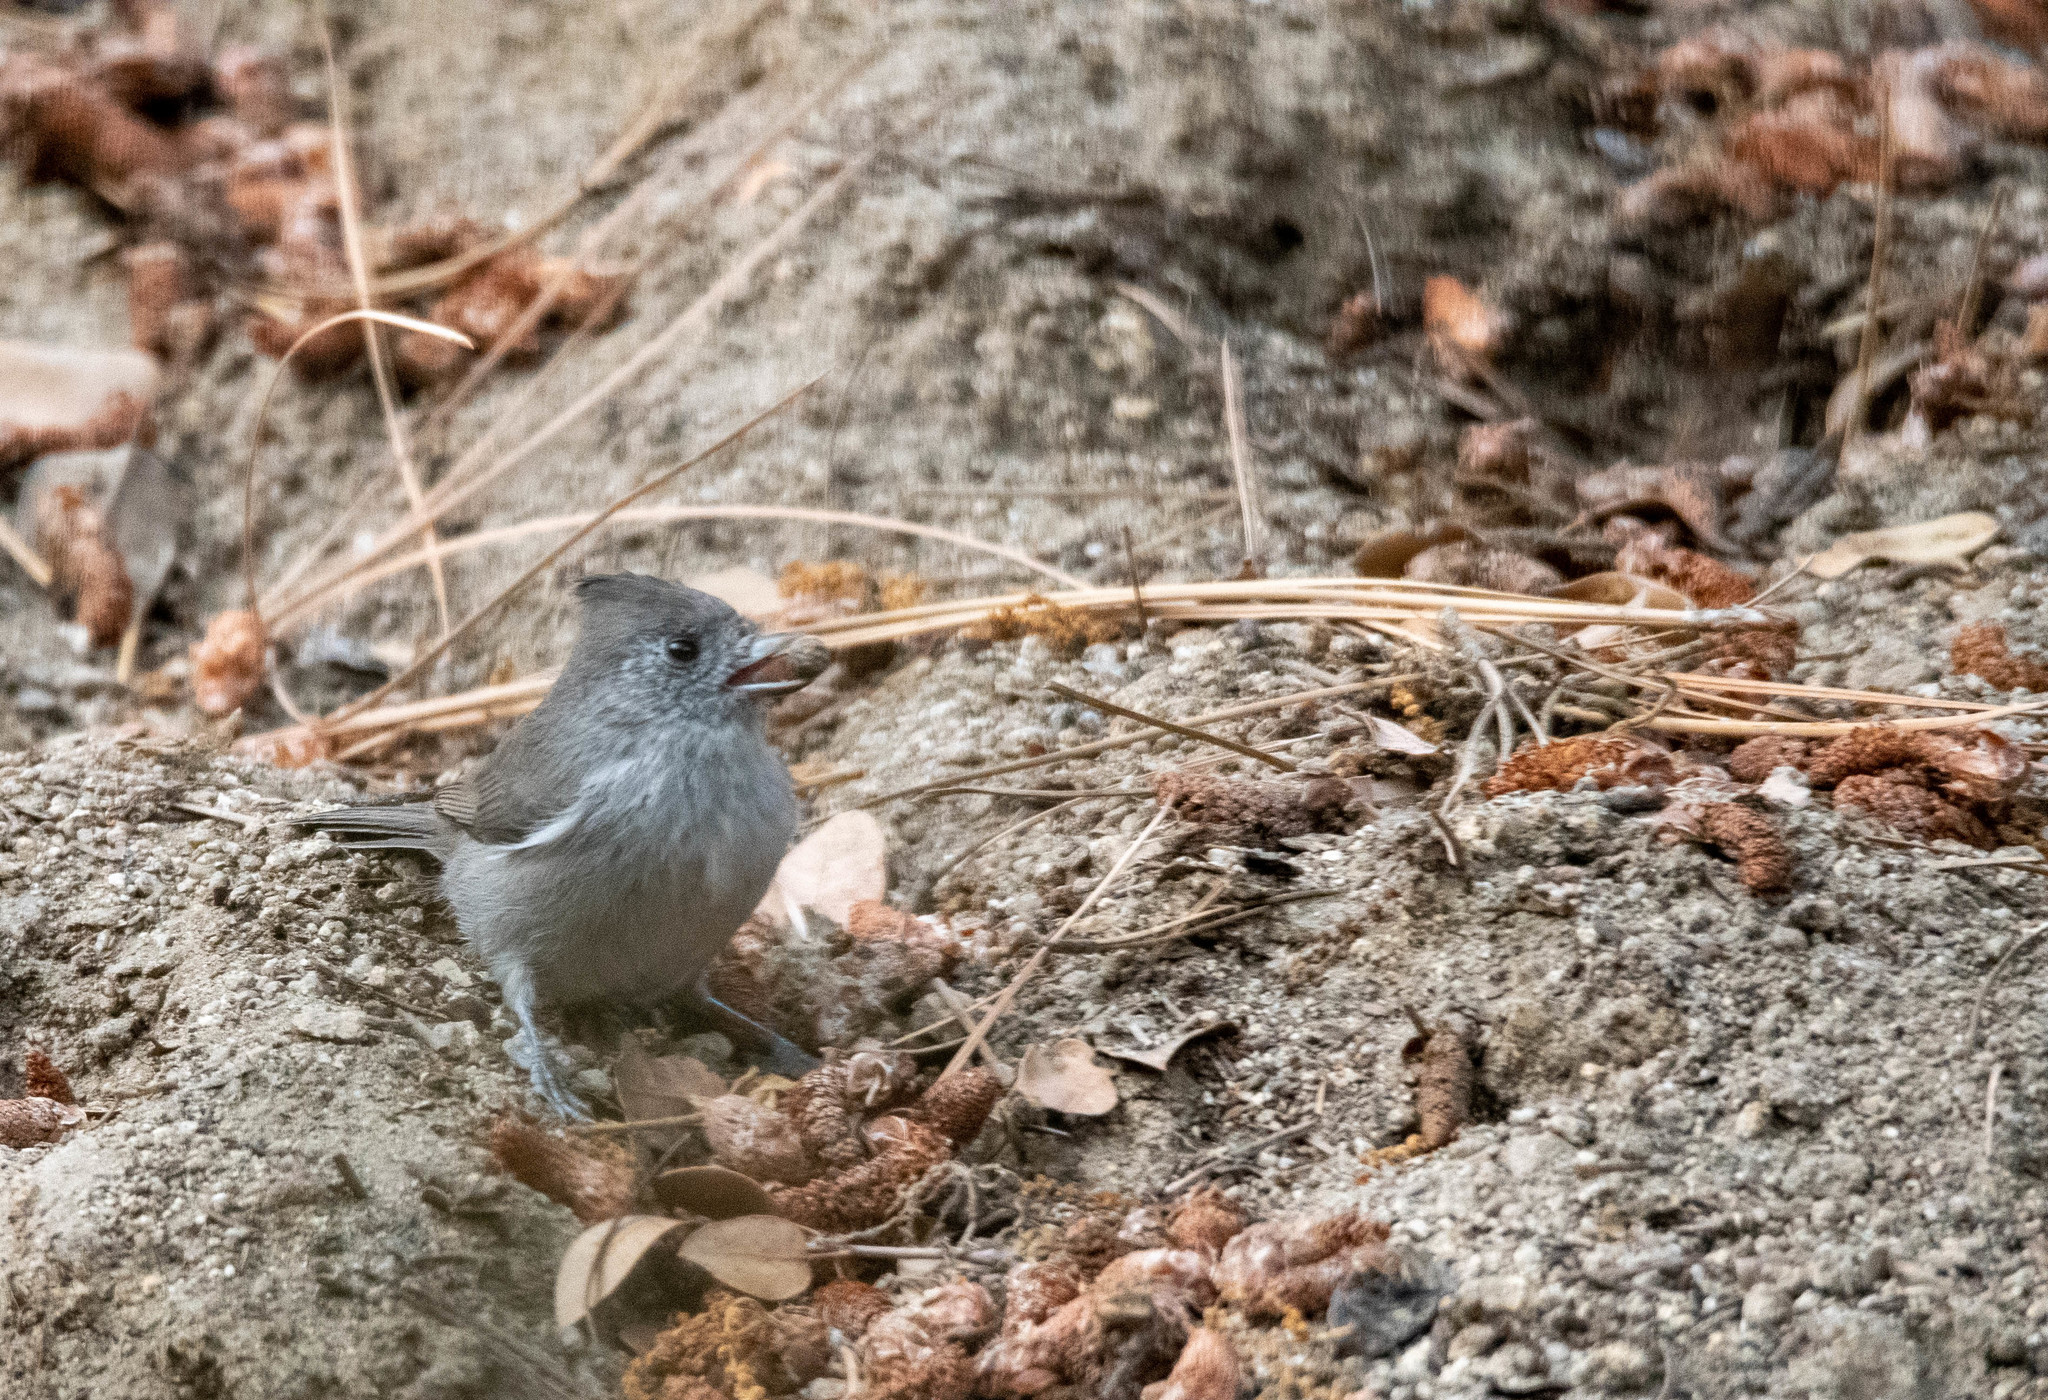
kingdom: Animalia
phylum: Chordata
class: Aves
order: Passeriformes
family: Paridae
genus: Baeolophus
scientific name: Baeolophus inornatus
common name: Oak titmouse
